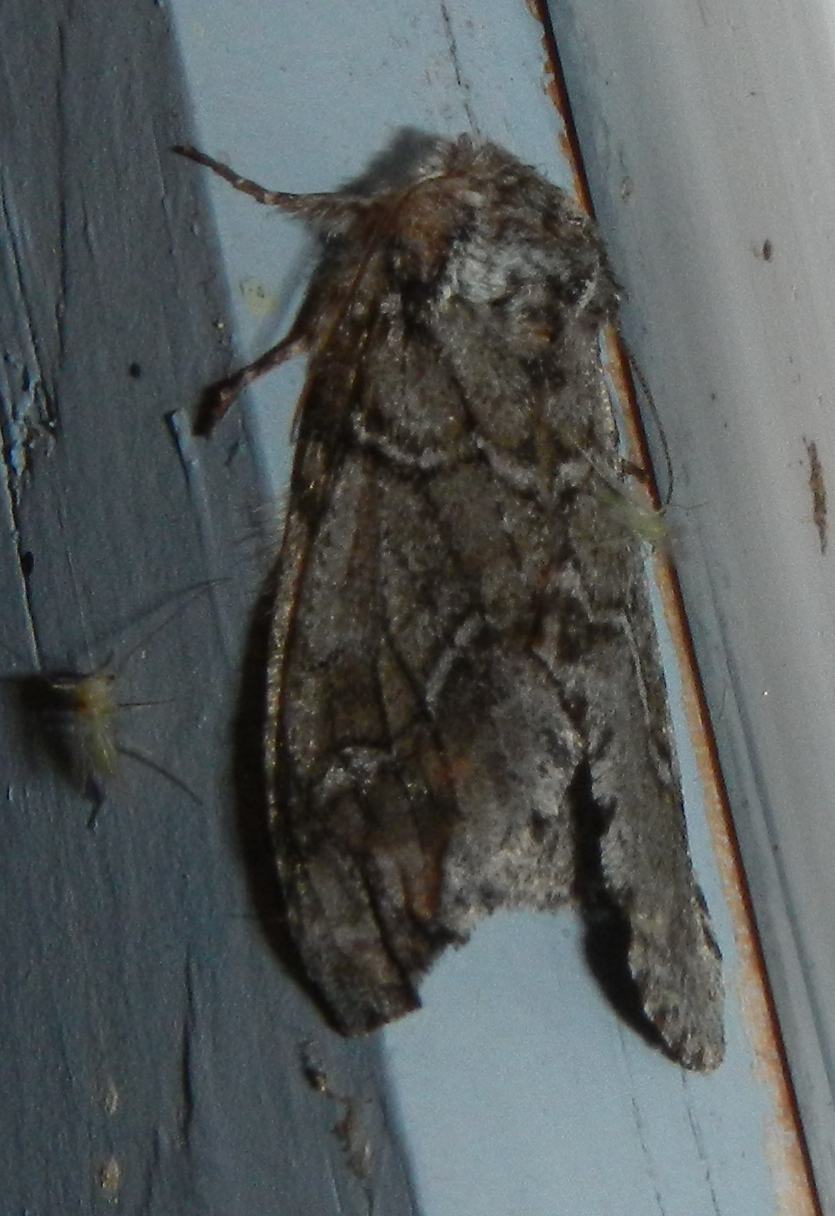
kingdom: Animalia
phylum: Arthropoda
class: Insecta
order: Lepidoptera
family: Notodontidae
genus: Lochmaeus
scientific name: Lochmaeus bilineata
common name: Double-lined prominent
